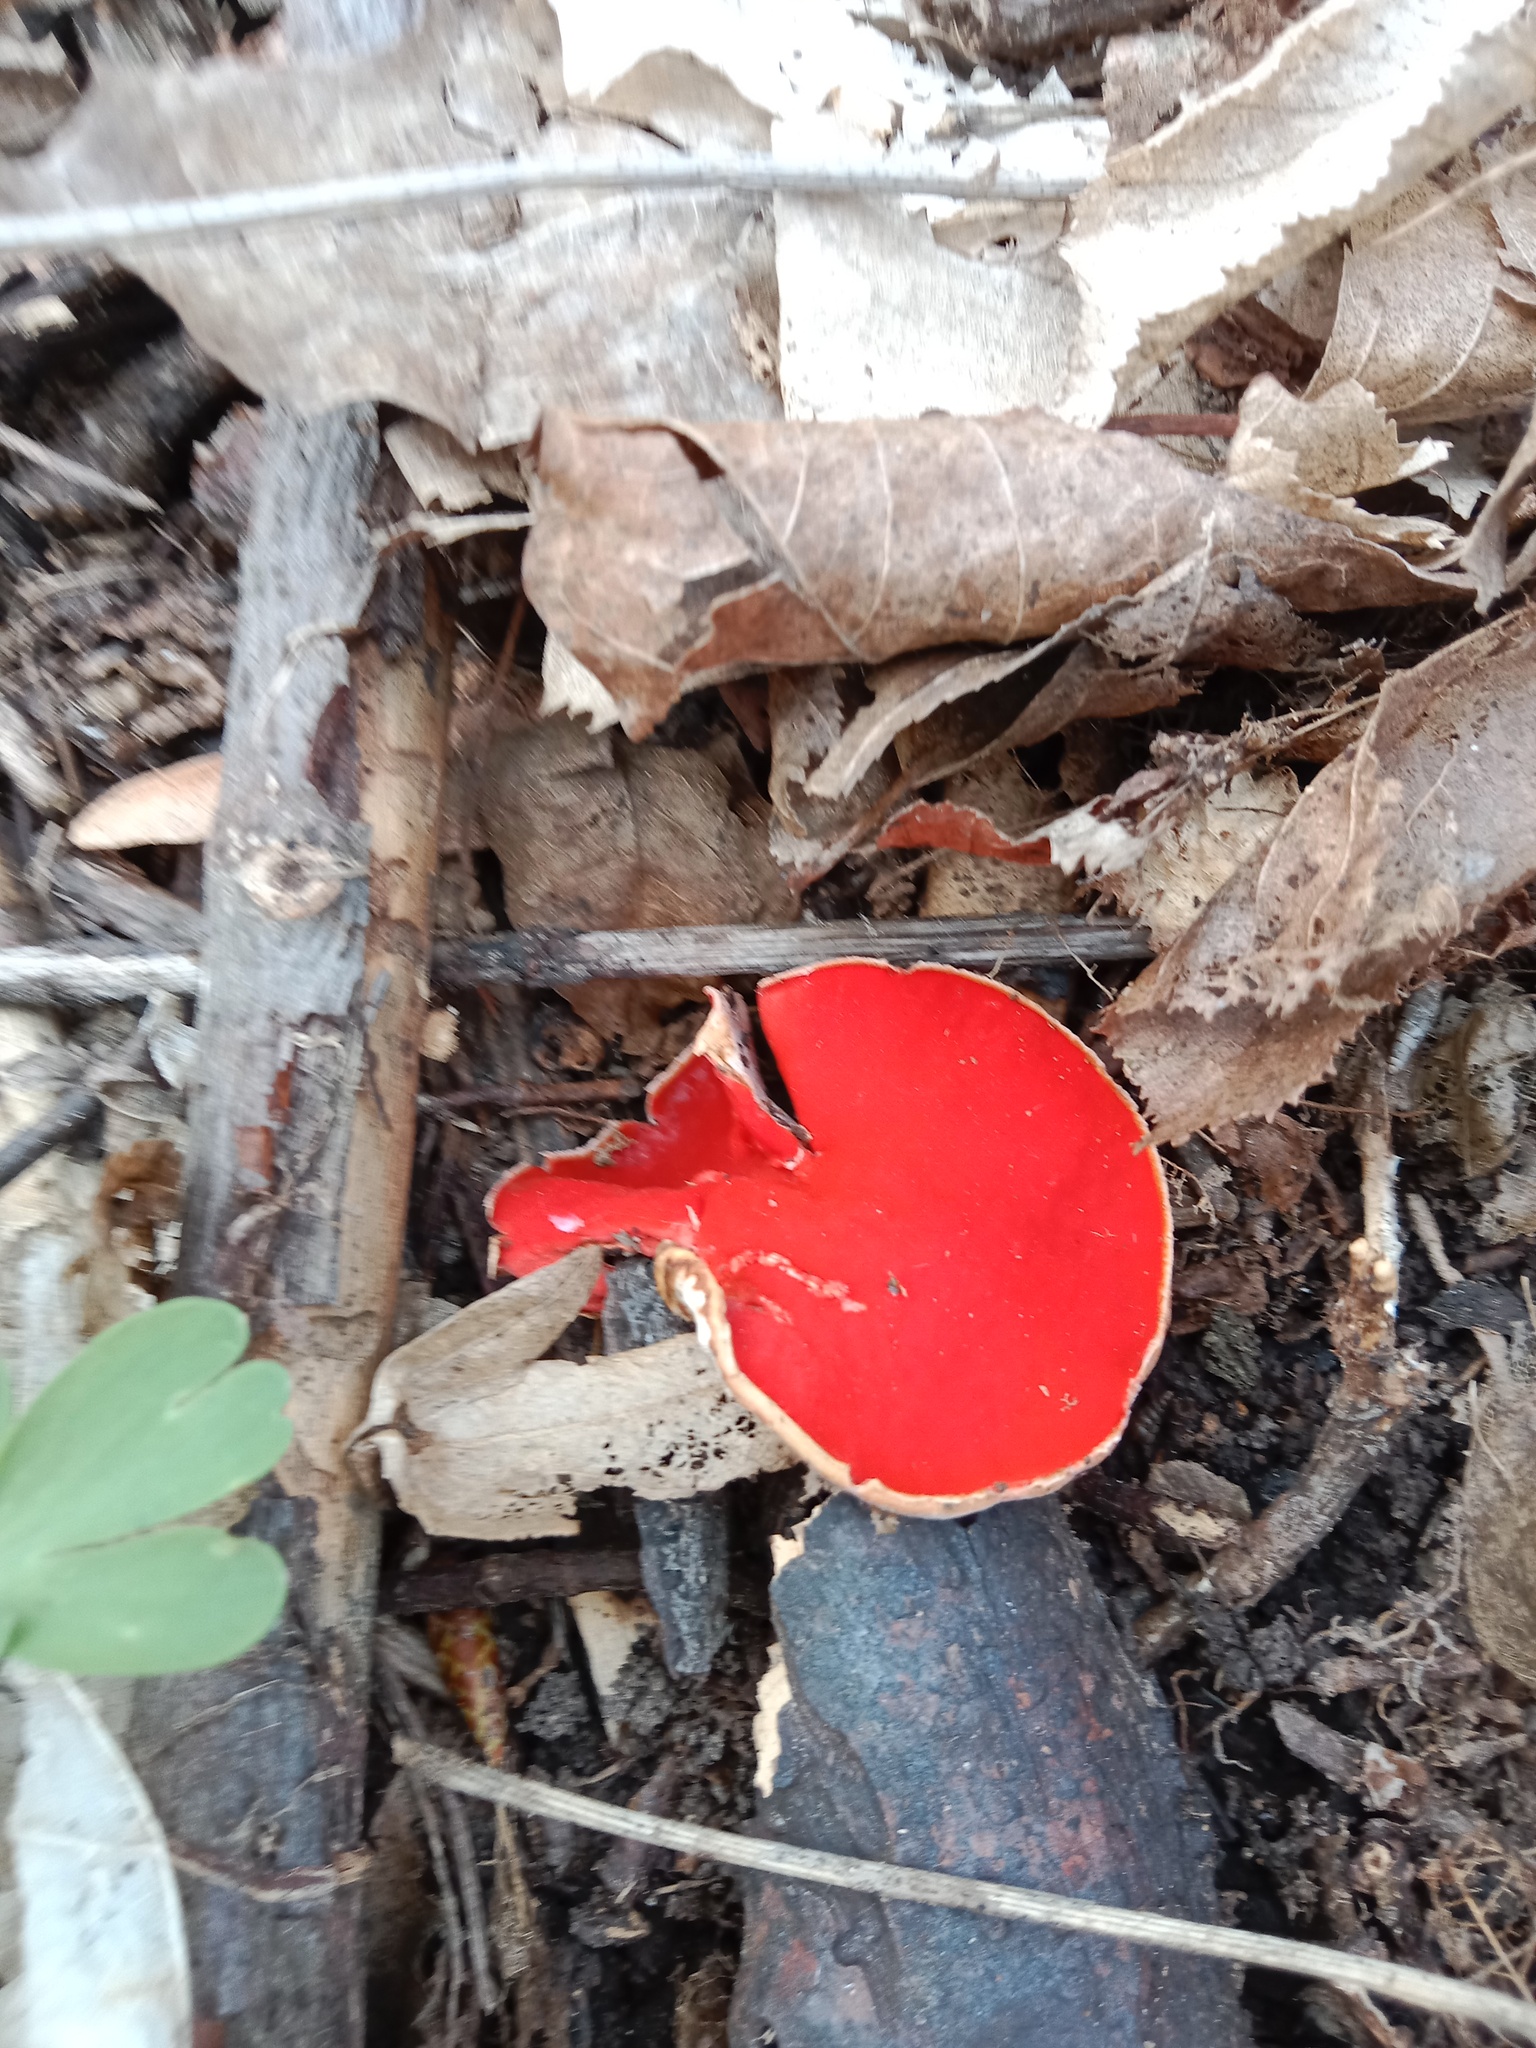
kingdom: Fungi
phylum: Ascomycota
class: Pezizomycetes
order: Pezizales
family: Sarcoscyphaceae
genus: Sarcoscypha
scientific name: Sarcoscypha
